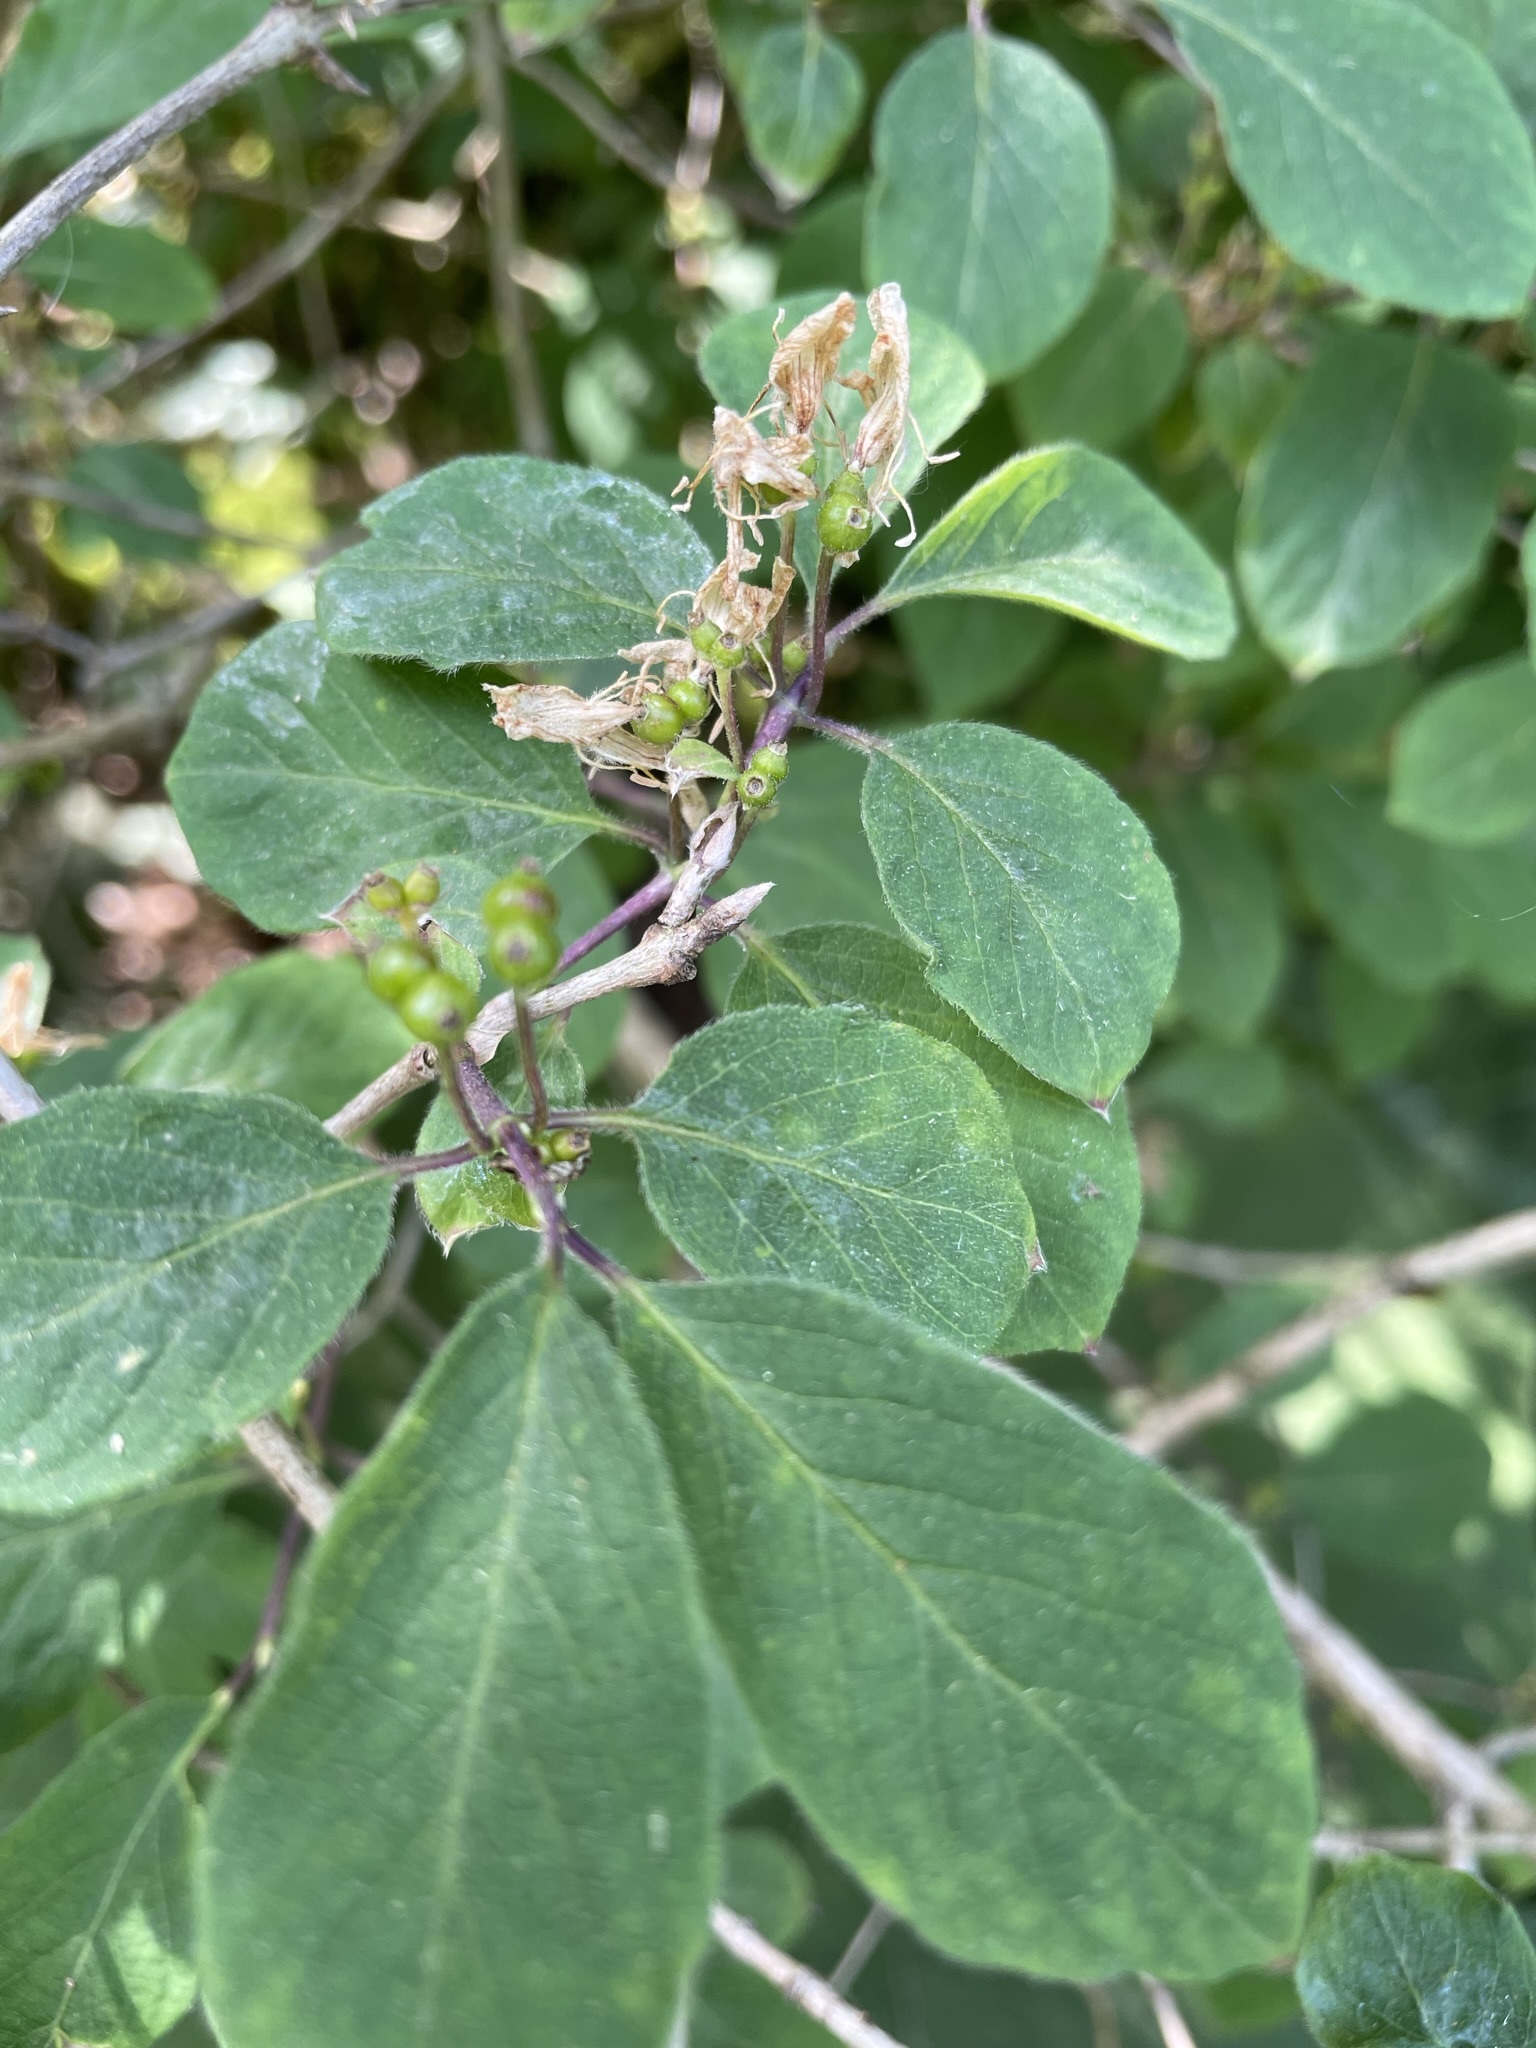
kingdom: Plantae
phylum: Tracheophyta
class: Magnoliopsida
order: Dipsacales
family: Caprifoliaceae
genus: Lonicera
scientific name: Lonicera xylosteum
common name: Fly honeysuckle
